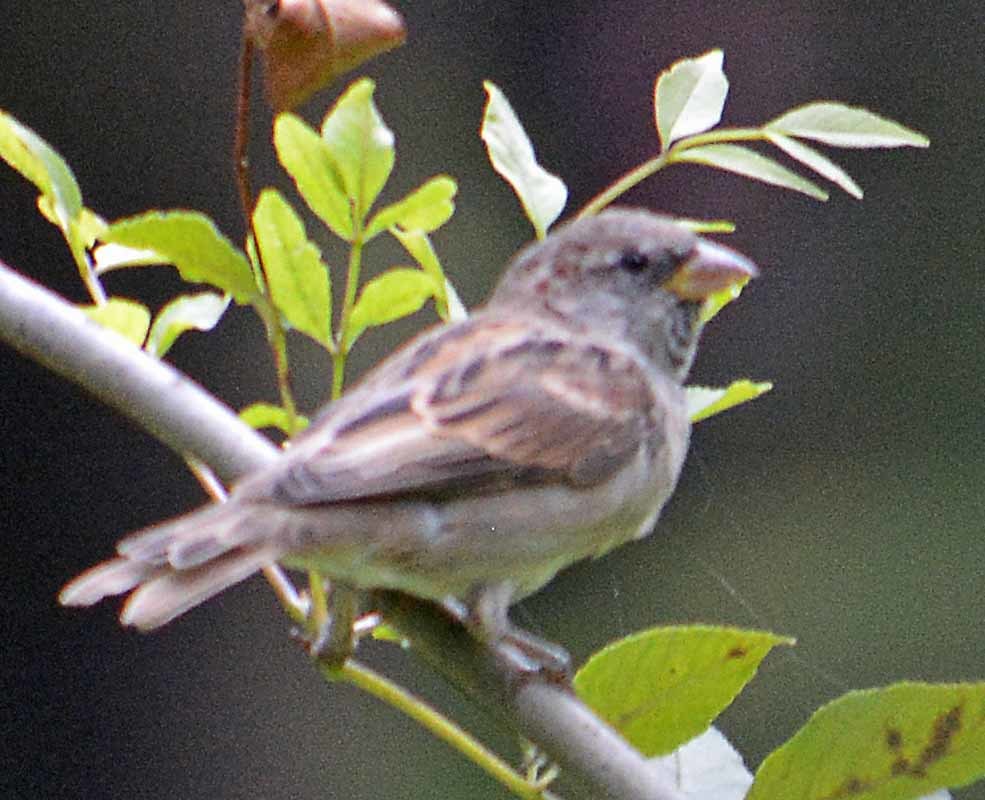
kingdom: Animalia
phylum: Chordata
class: Aves
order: Passeriformes
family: Passeridae
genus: Passer
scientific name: Passer domesticus
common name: House sparrow
